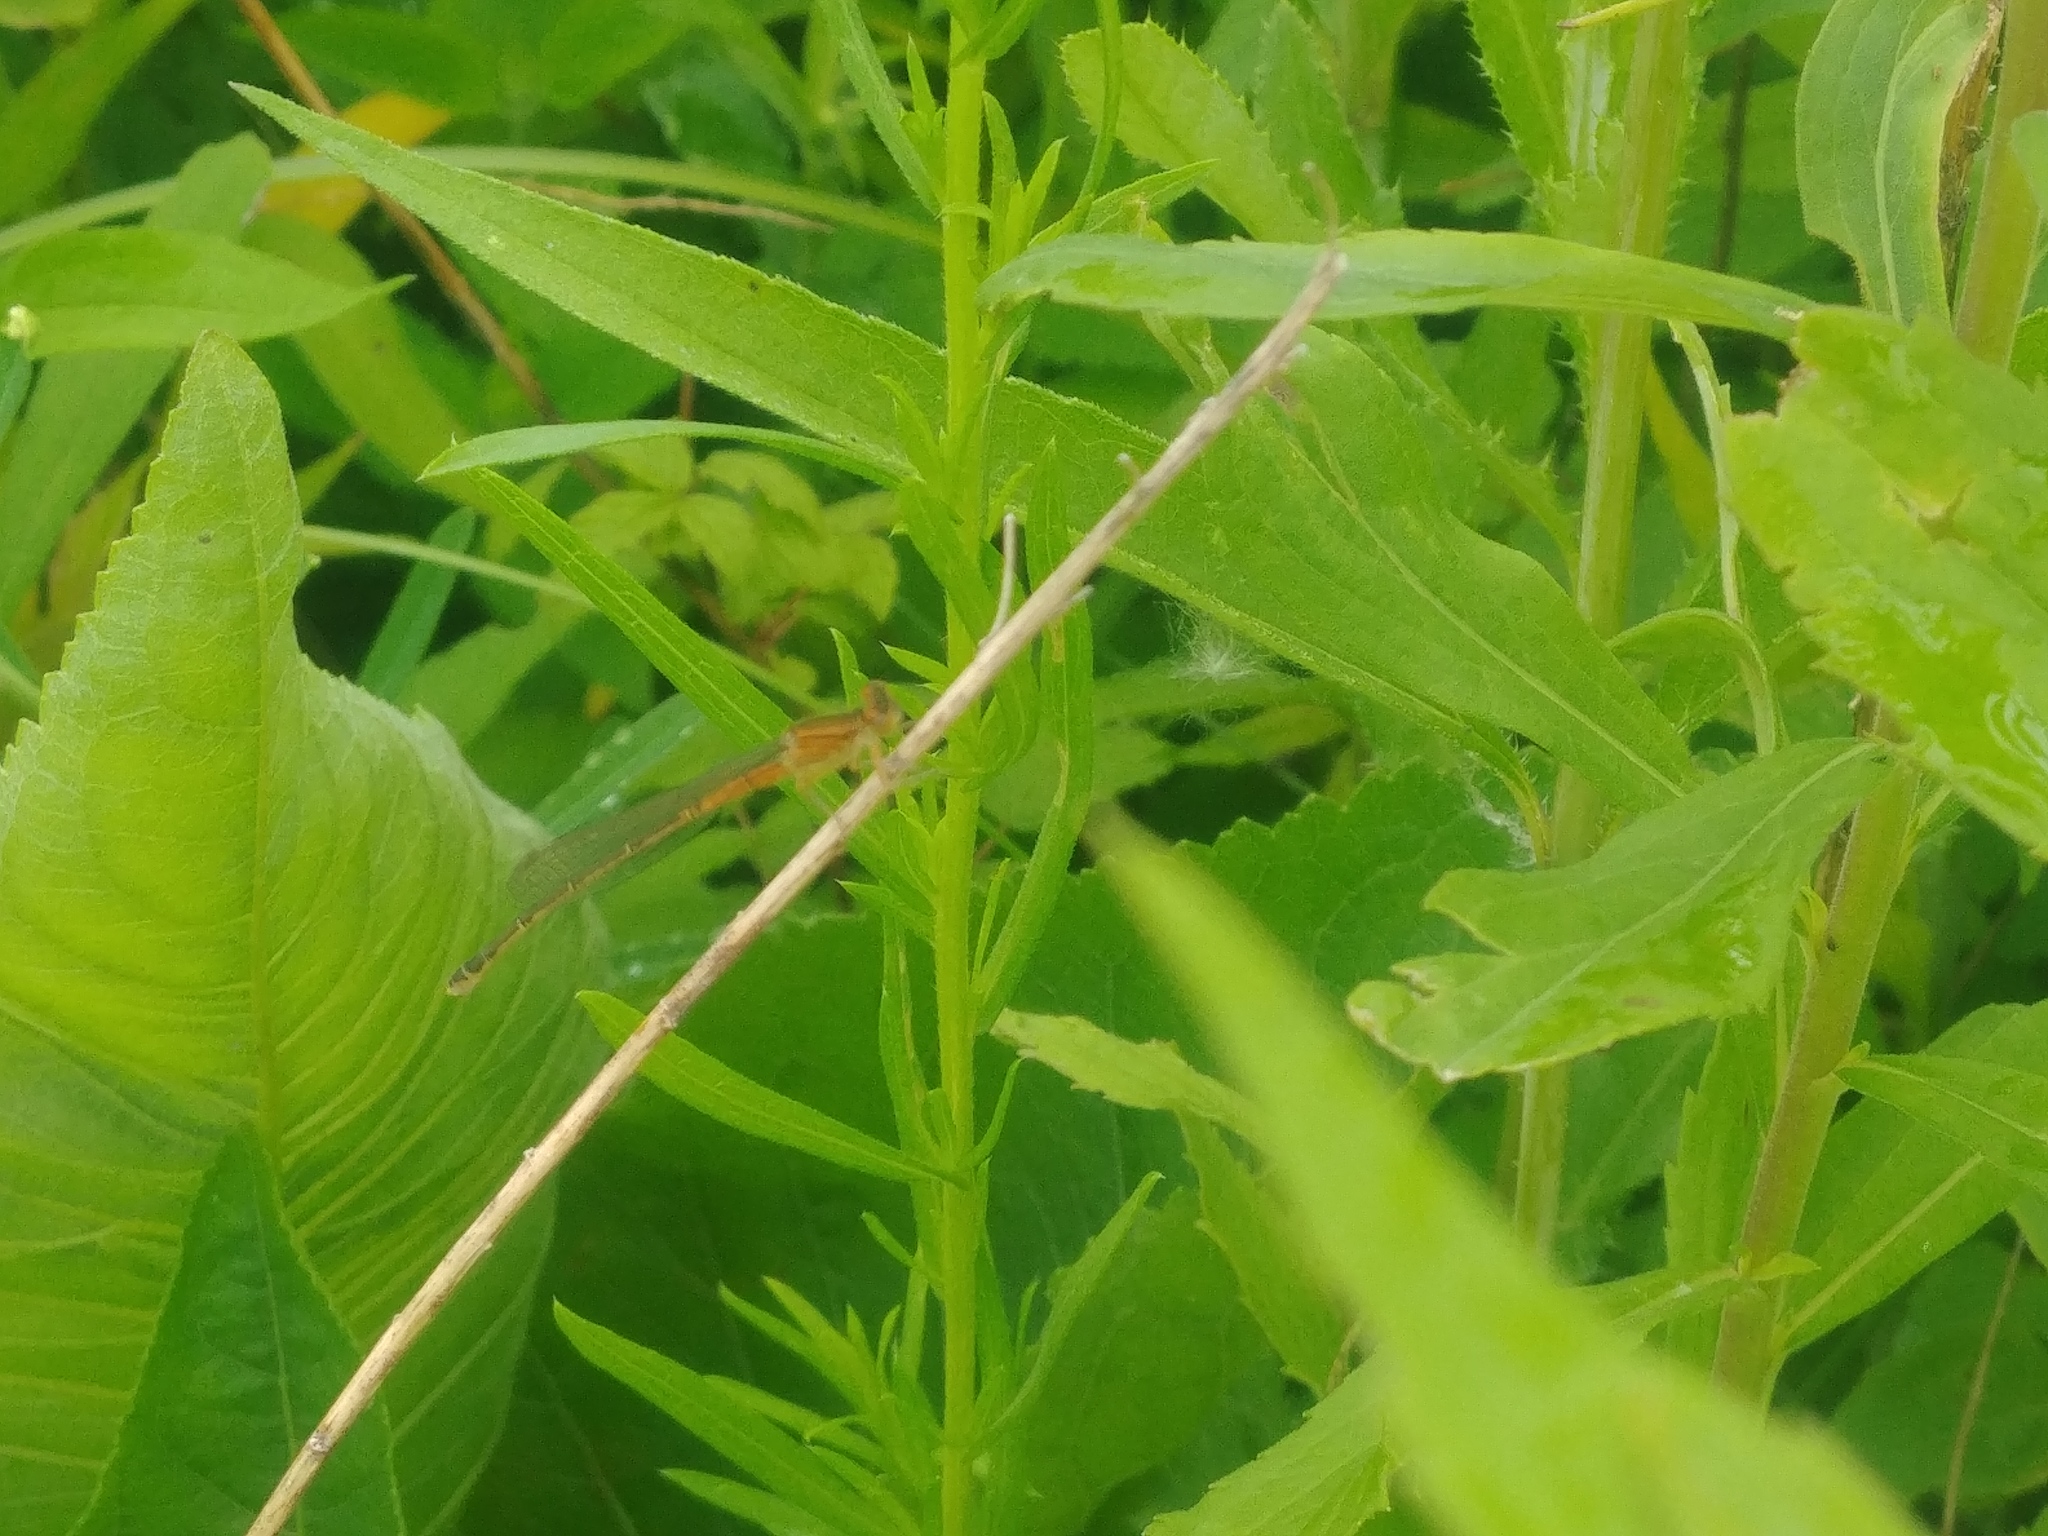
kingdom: Animalia
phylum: Arthropoda
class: Insecta
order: Odonata
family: Coenagrionidae
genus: Ischnura
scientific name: Ischnura verticalis
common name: Eastern forktail
